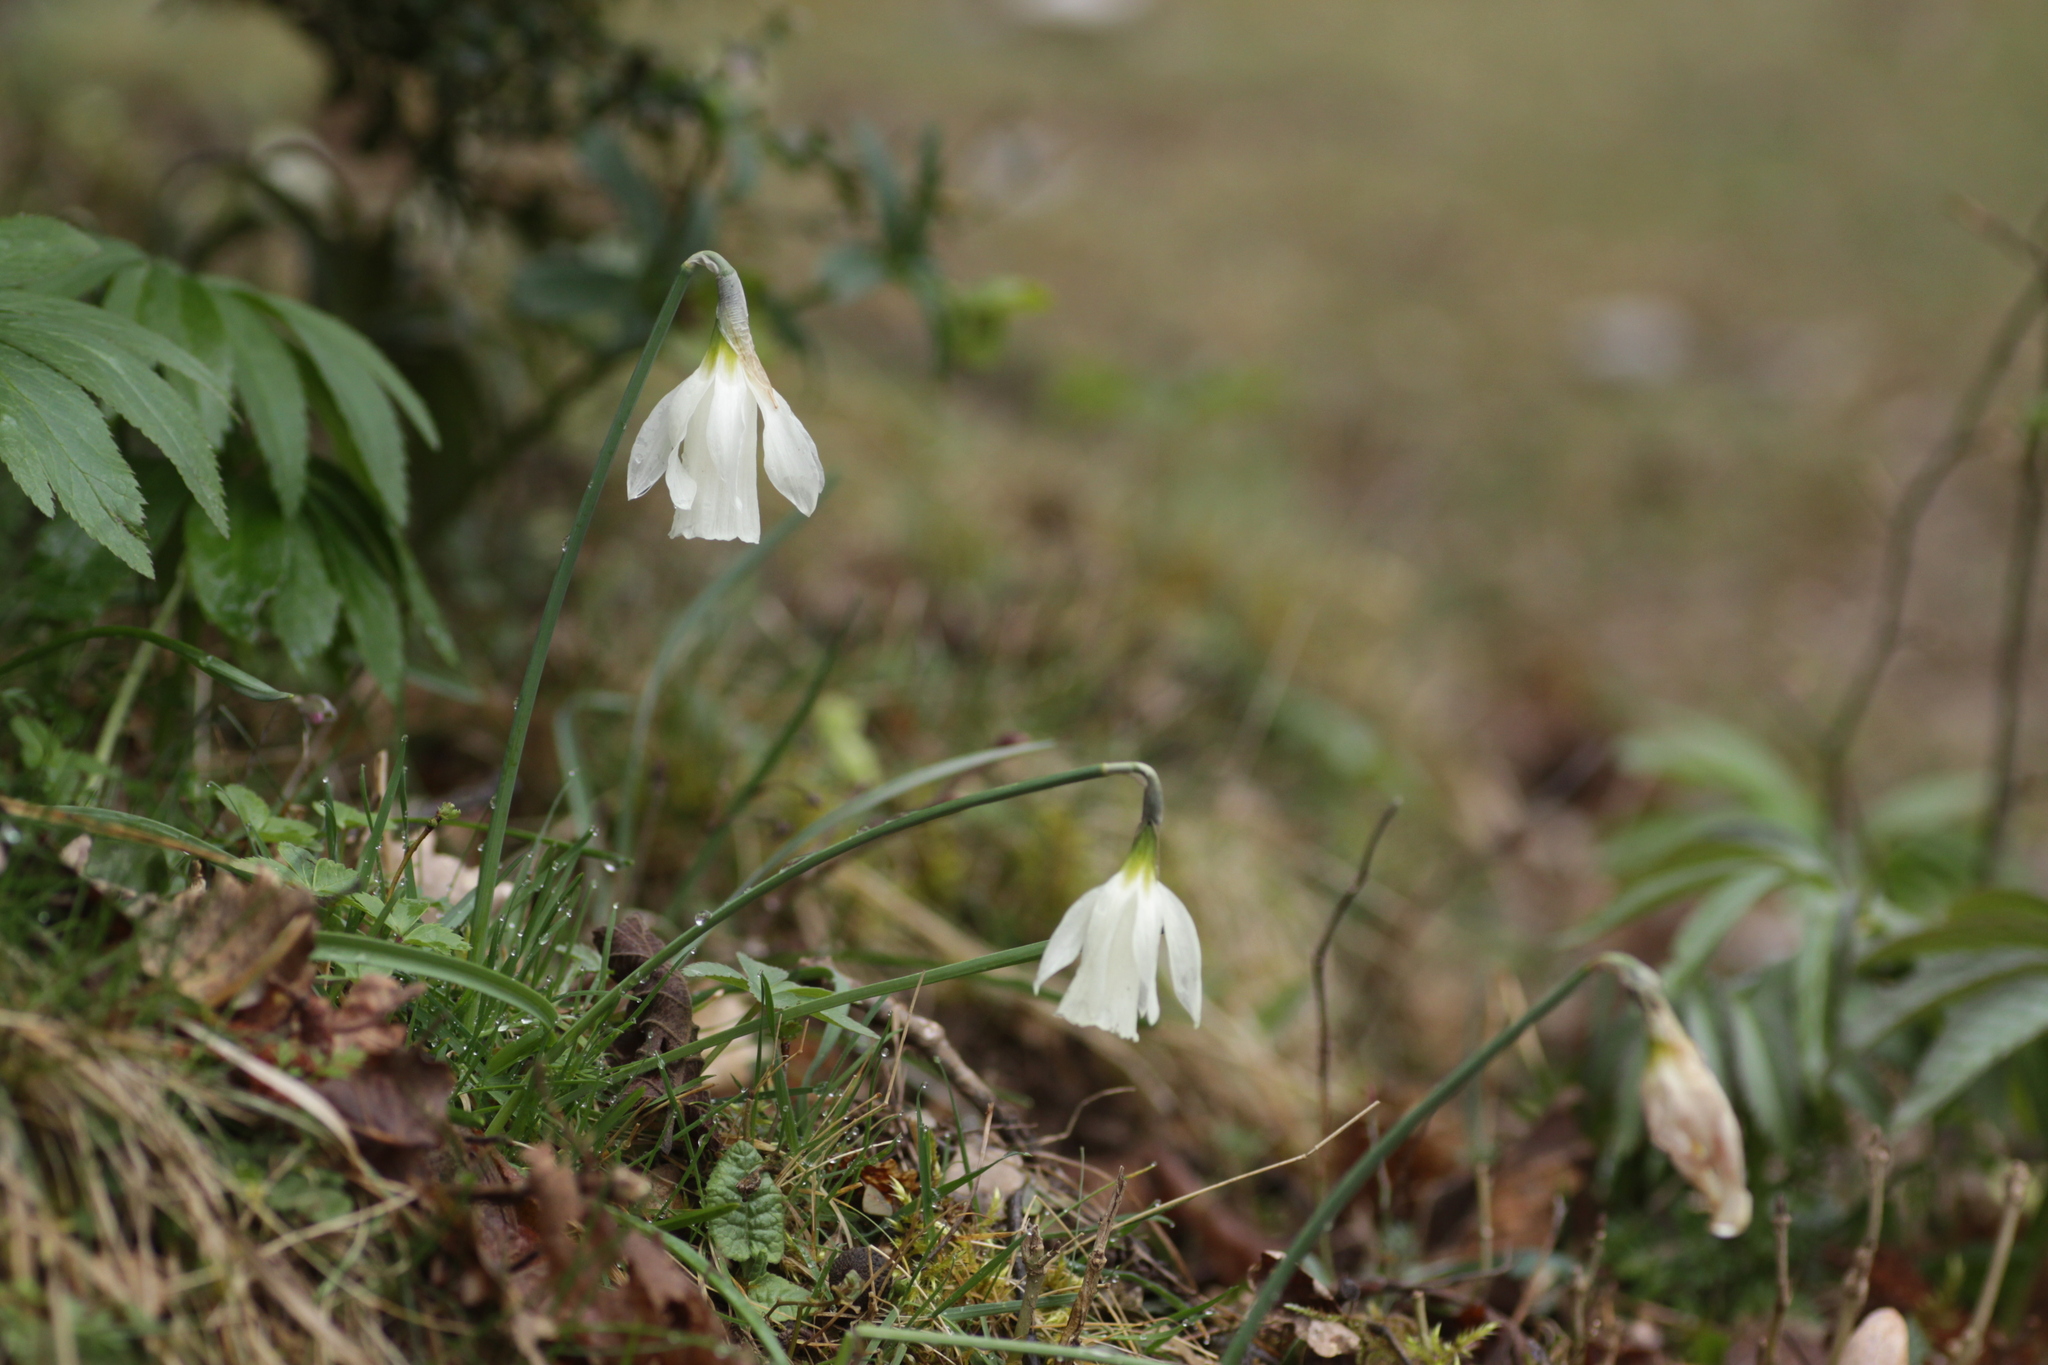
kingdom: Plantae
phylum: Tracheophyta
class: Liliopsida
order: Asparagales
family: Amaryllidaceae
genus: Narcissus
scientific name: Narcissus moschatus
